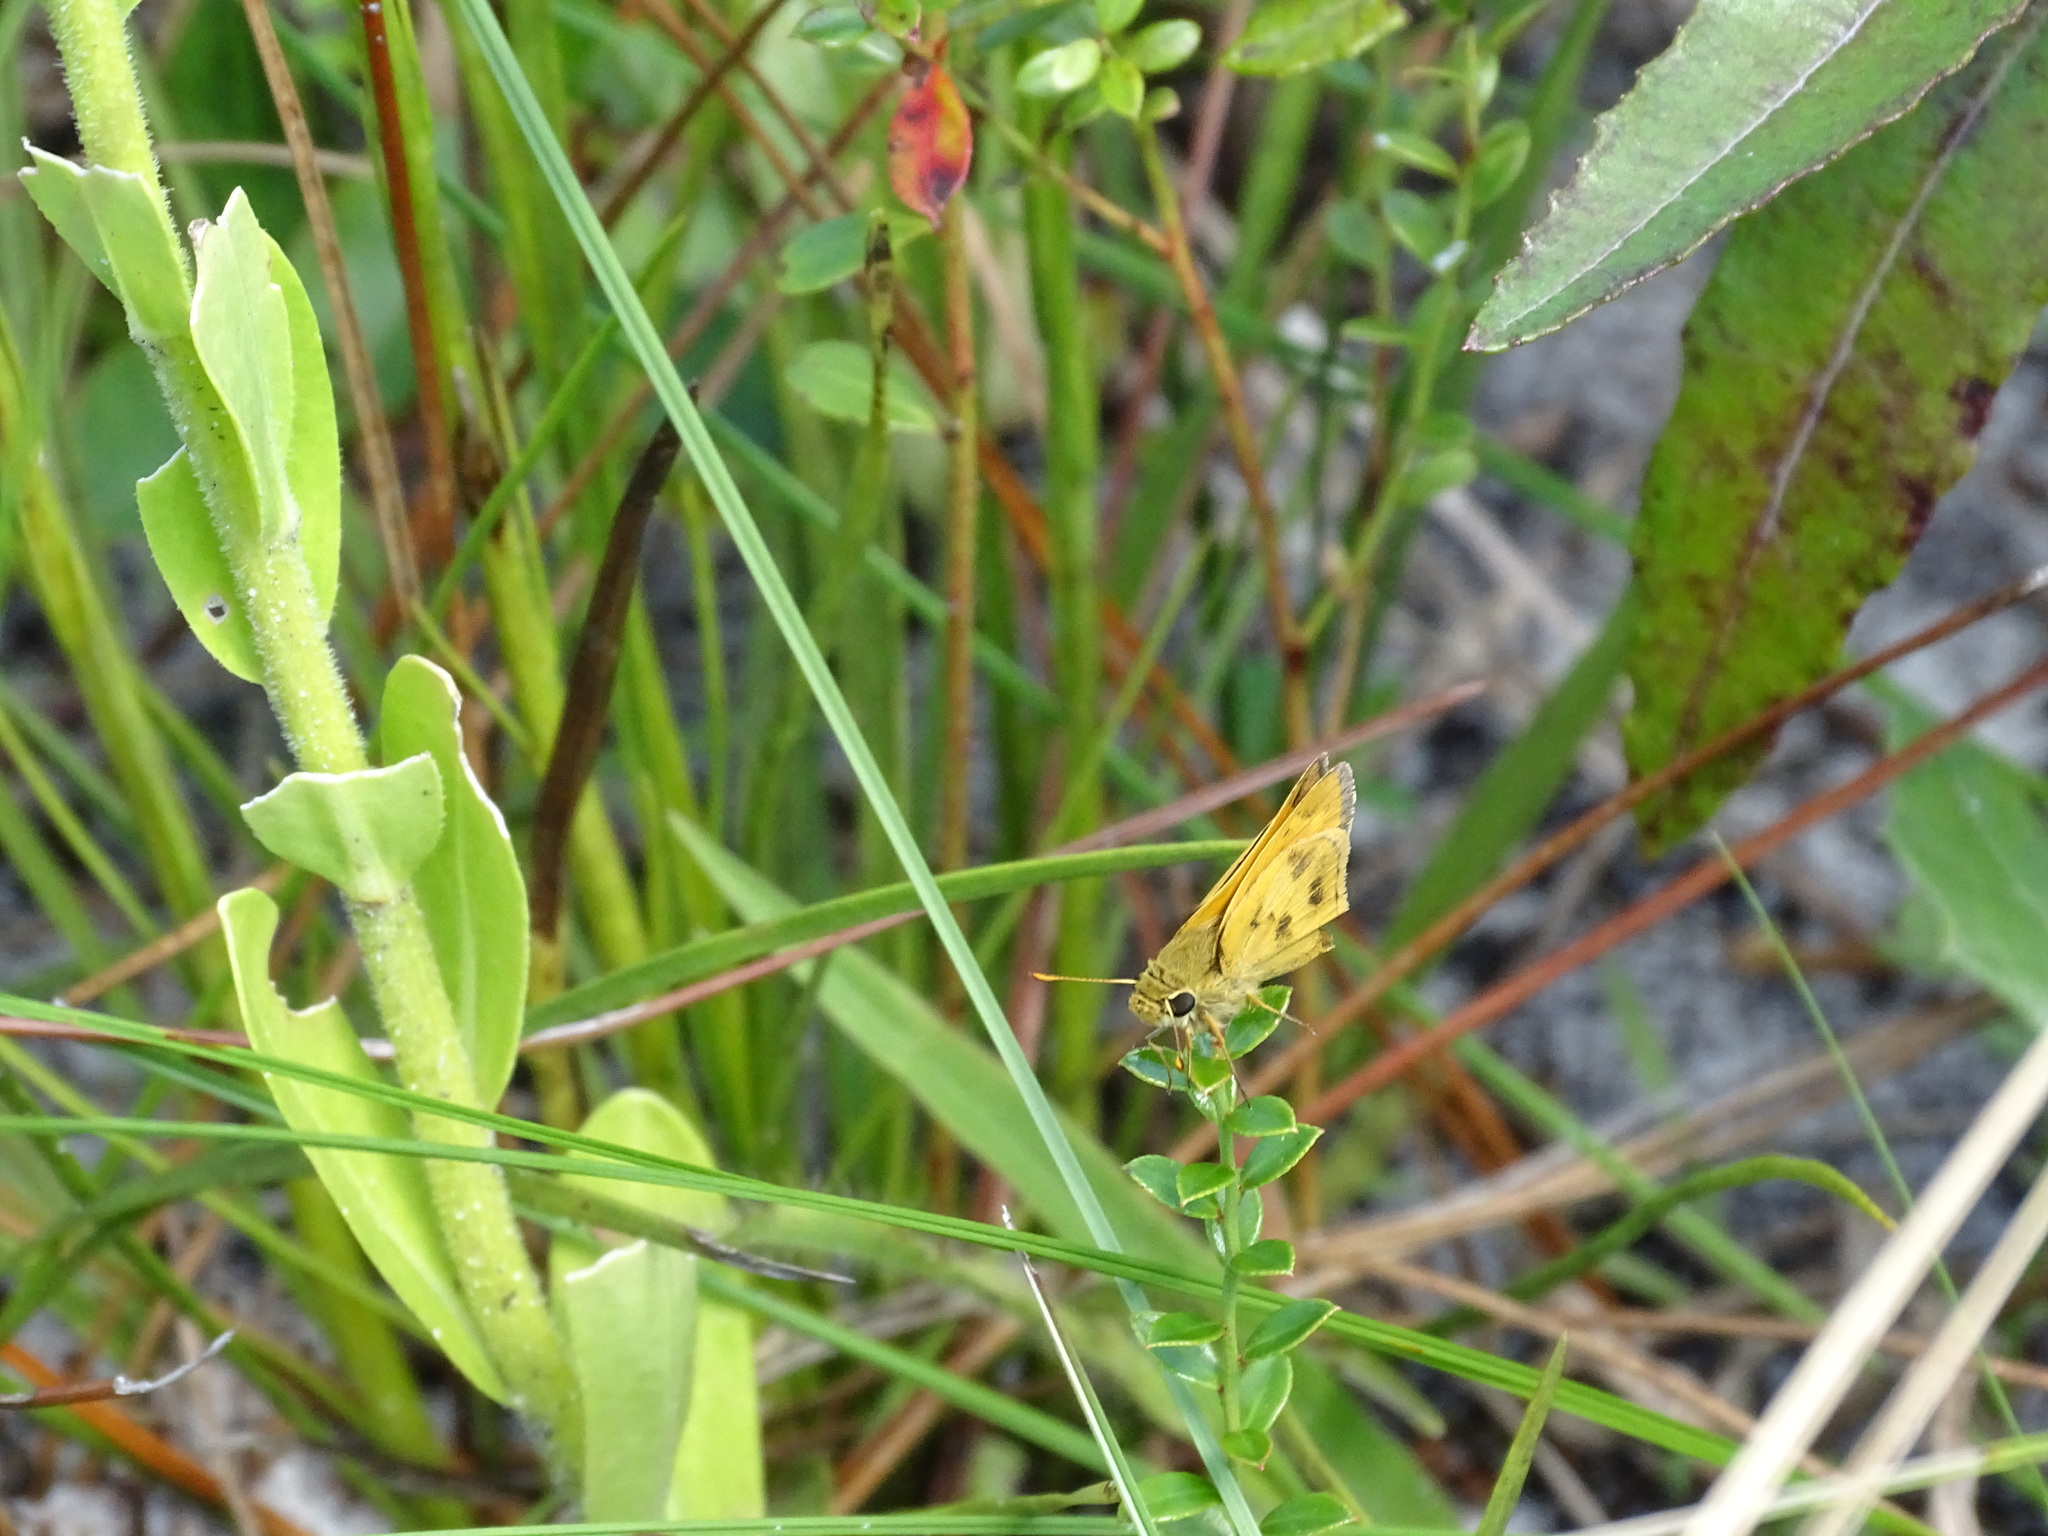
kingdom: Animalia
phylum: Arthropoda
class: Insecta
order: Lepidoptera
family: Hesperiidae
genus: Polites
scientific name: Polites vibex
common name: Whirlabout
